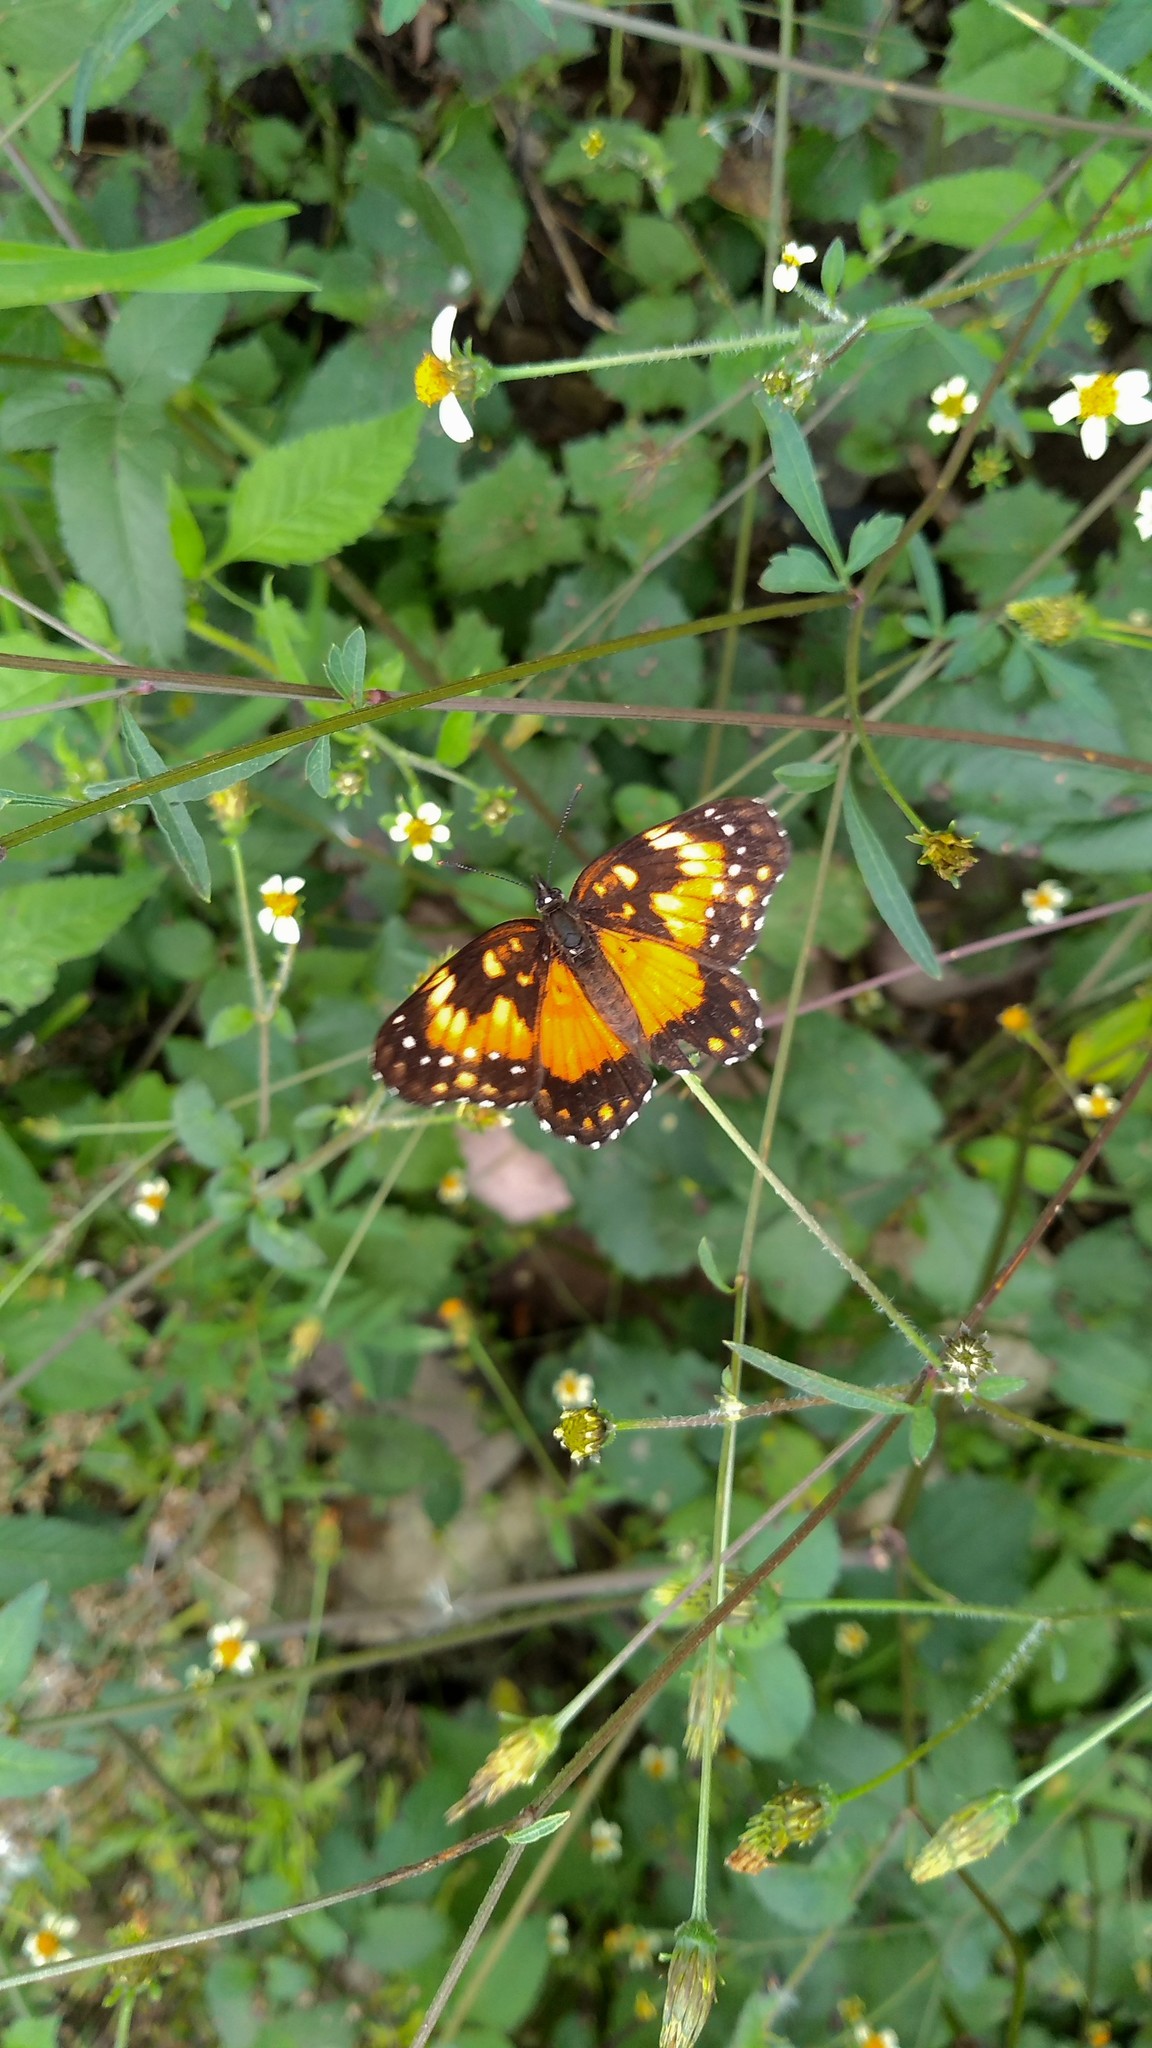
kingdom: Animalia
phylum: Arthropoda
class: Insecta
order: Lepidoptera
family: Nymphalidae
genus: Chlosyne
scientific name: Chlosyne lacinia
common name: Bordered patch
